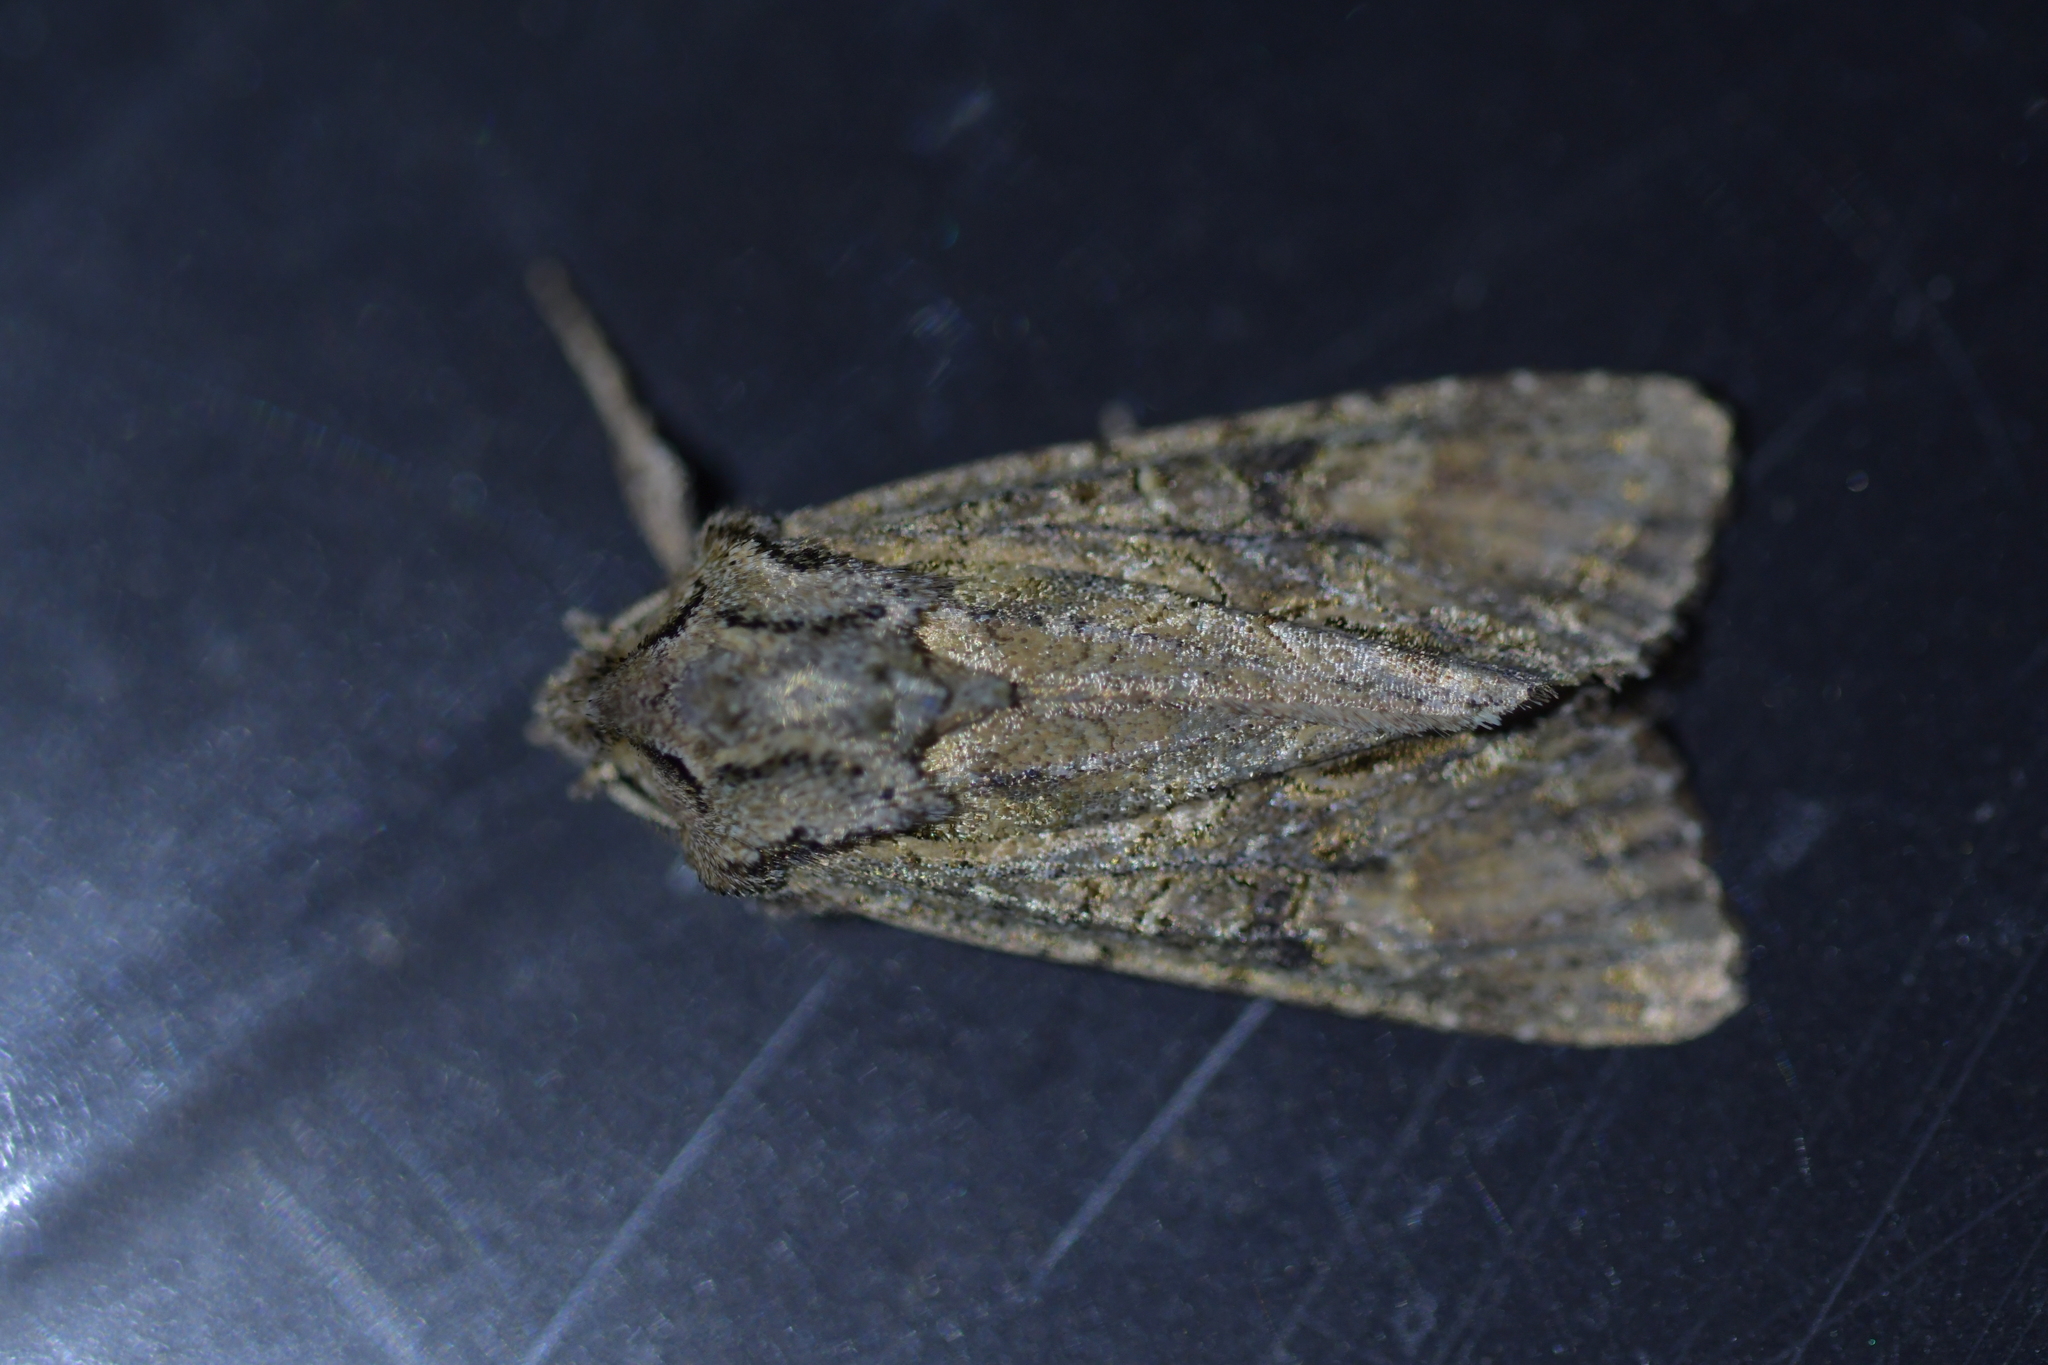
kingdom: Animalia
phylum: Arthropoda
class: Insecta
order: Lepidoptera
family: Noctuidae
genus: Ichneutica
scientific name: Ichneutica mutans
